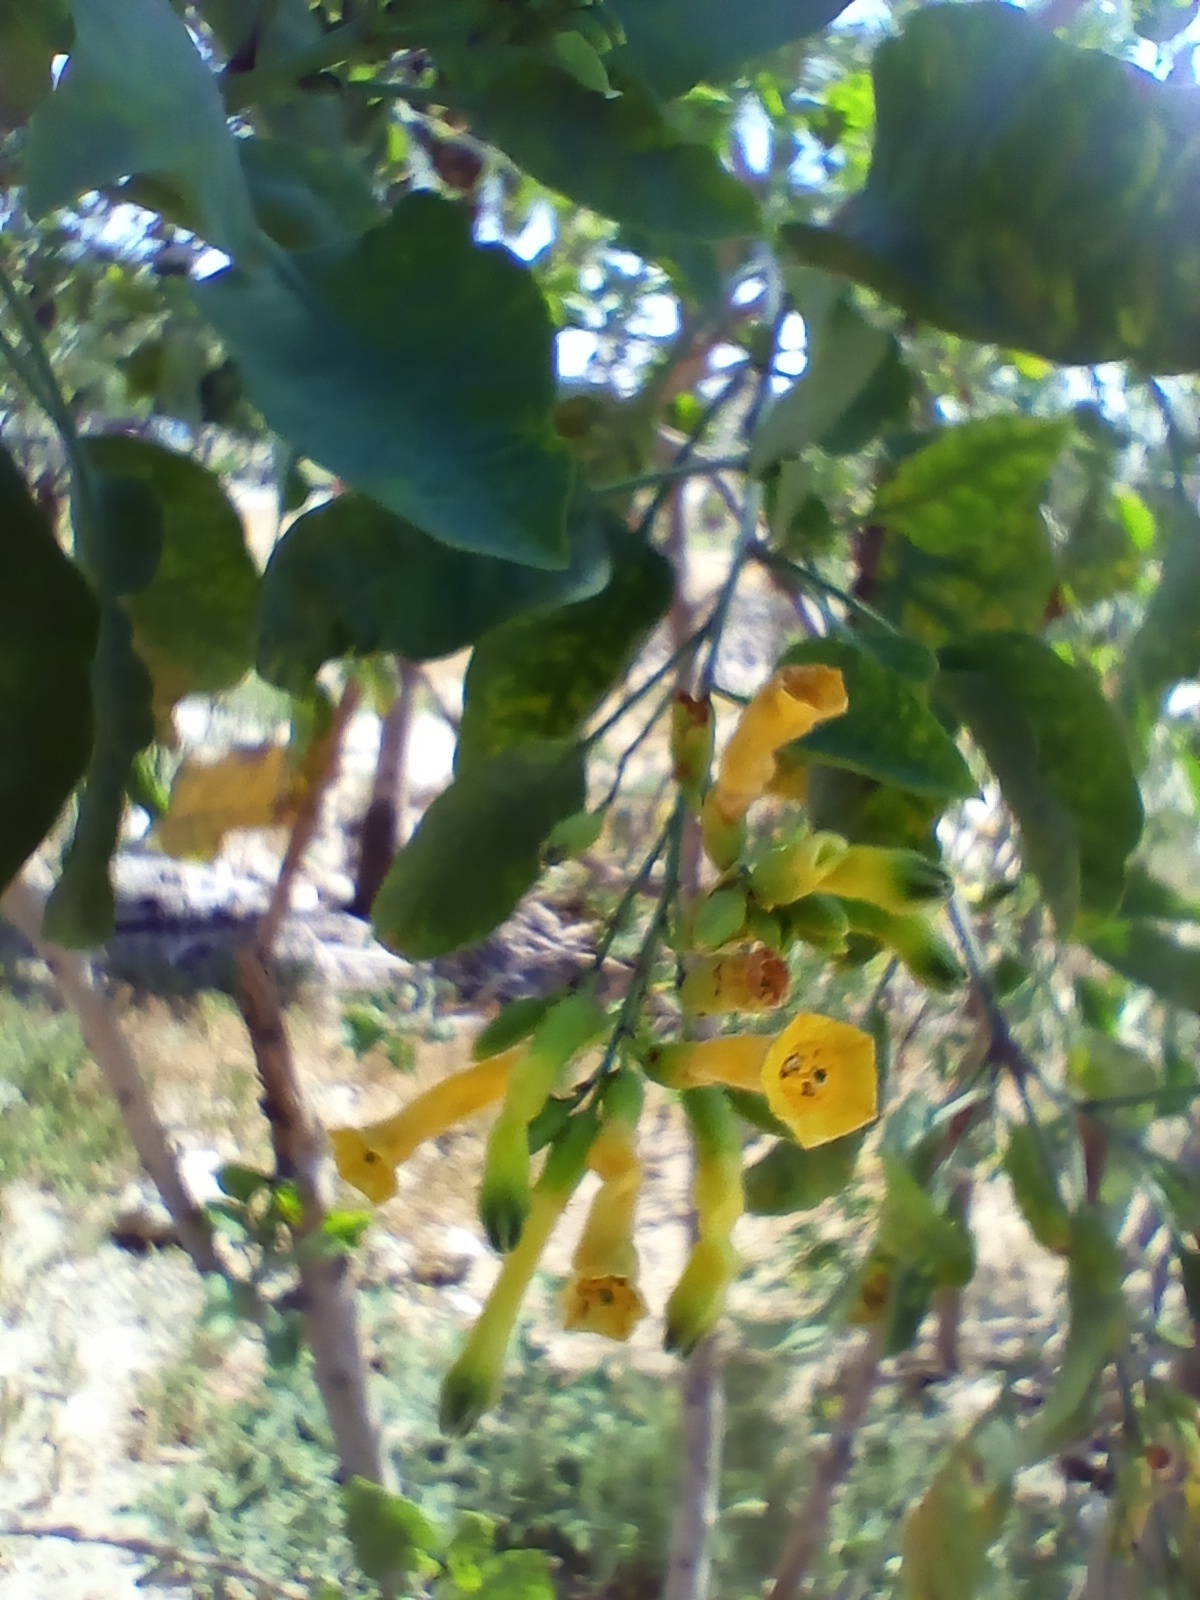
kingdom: Plantae
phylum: Tracheophyta
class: Magnoliopsida
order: Solanales
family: Solanaceae
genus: Nicotiana
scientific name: Nicotiana glauca
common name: Tree tobacco
